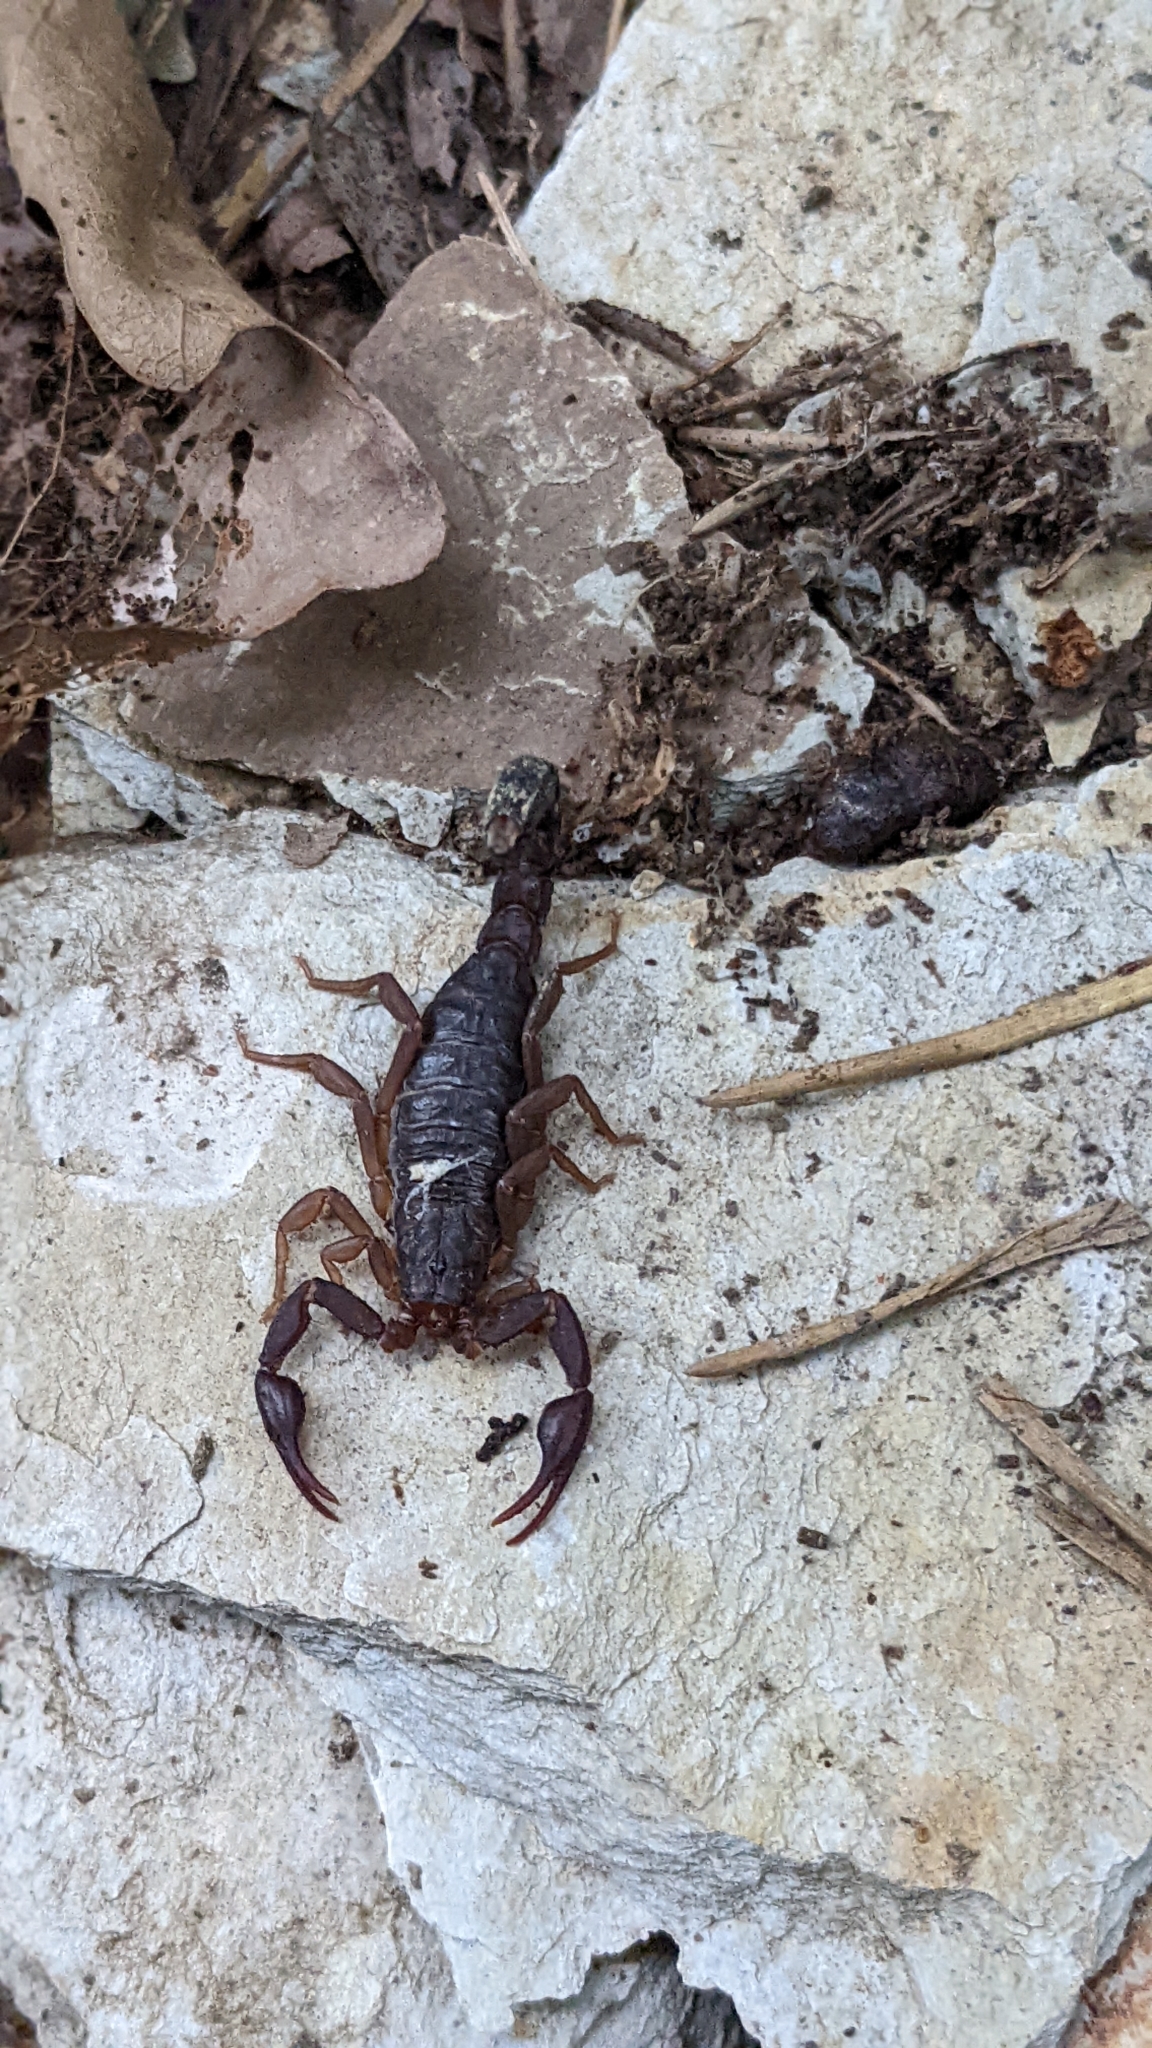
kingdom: Animalia
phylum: Arthropoda
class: Arachnida
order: Scorpiones
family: Vaejovidae
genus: Vaejovis
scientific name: Vaejovis carolinianus
